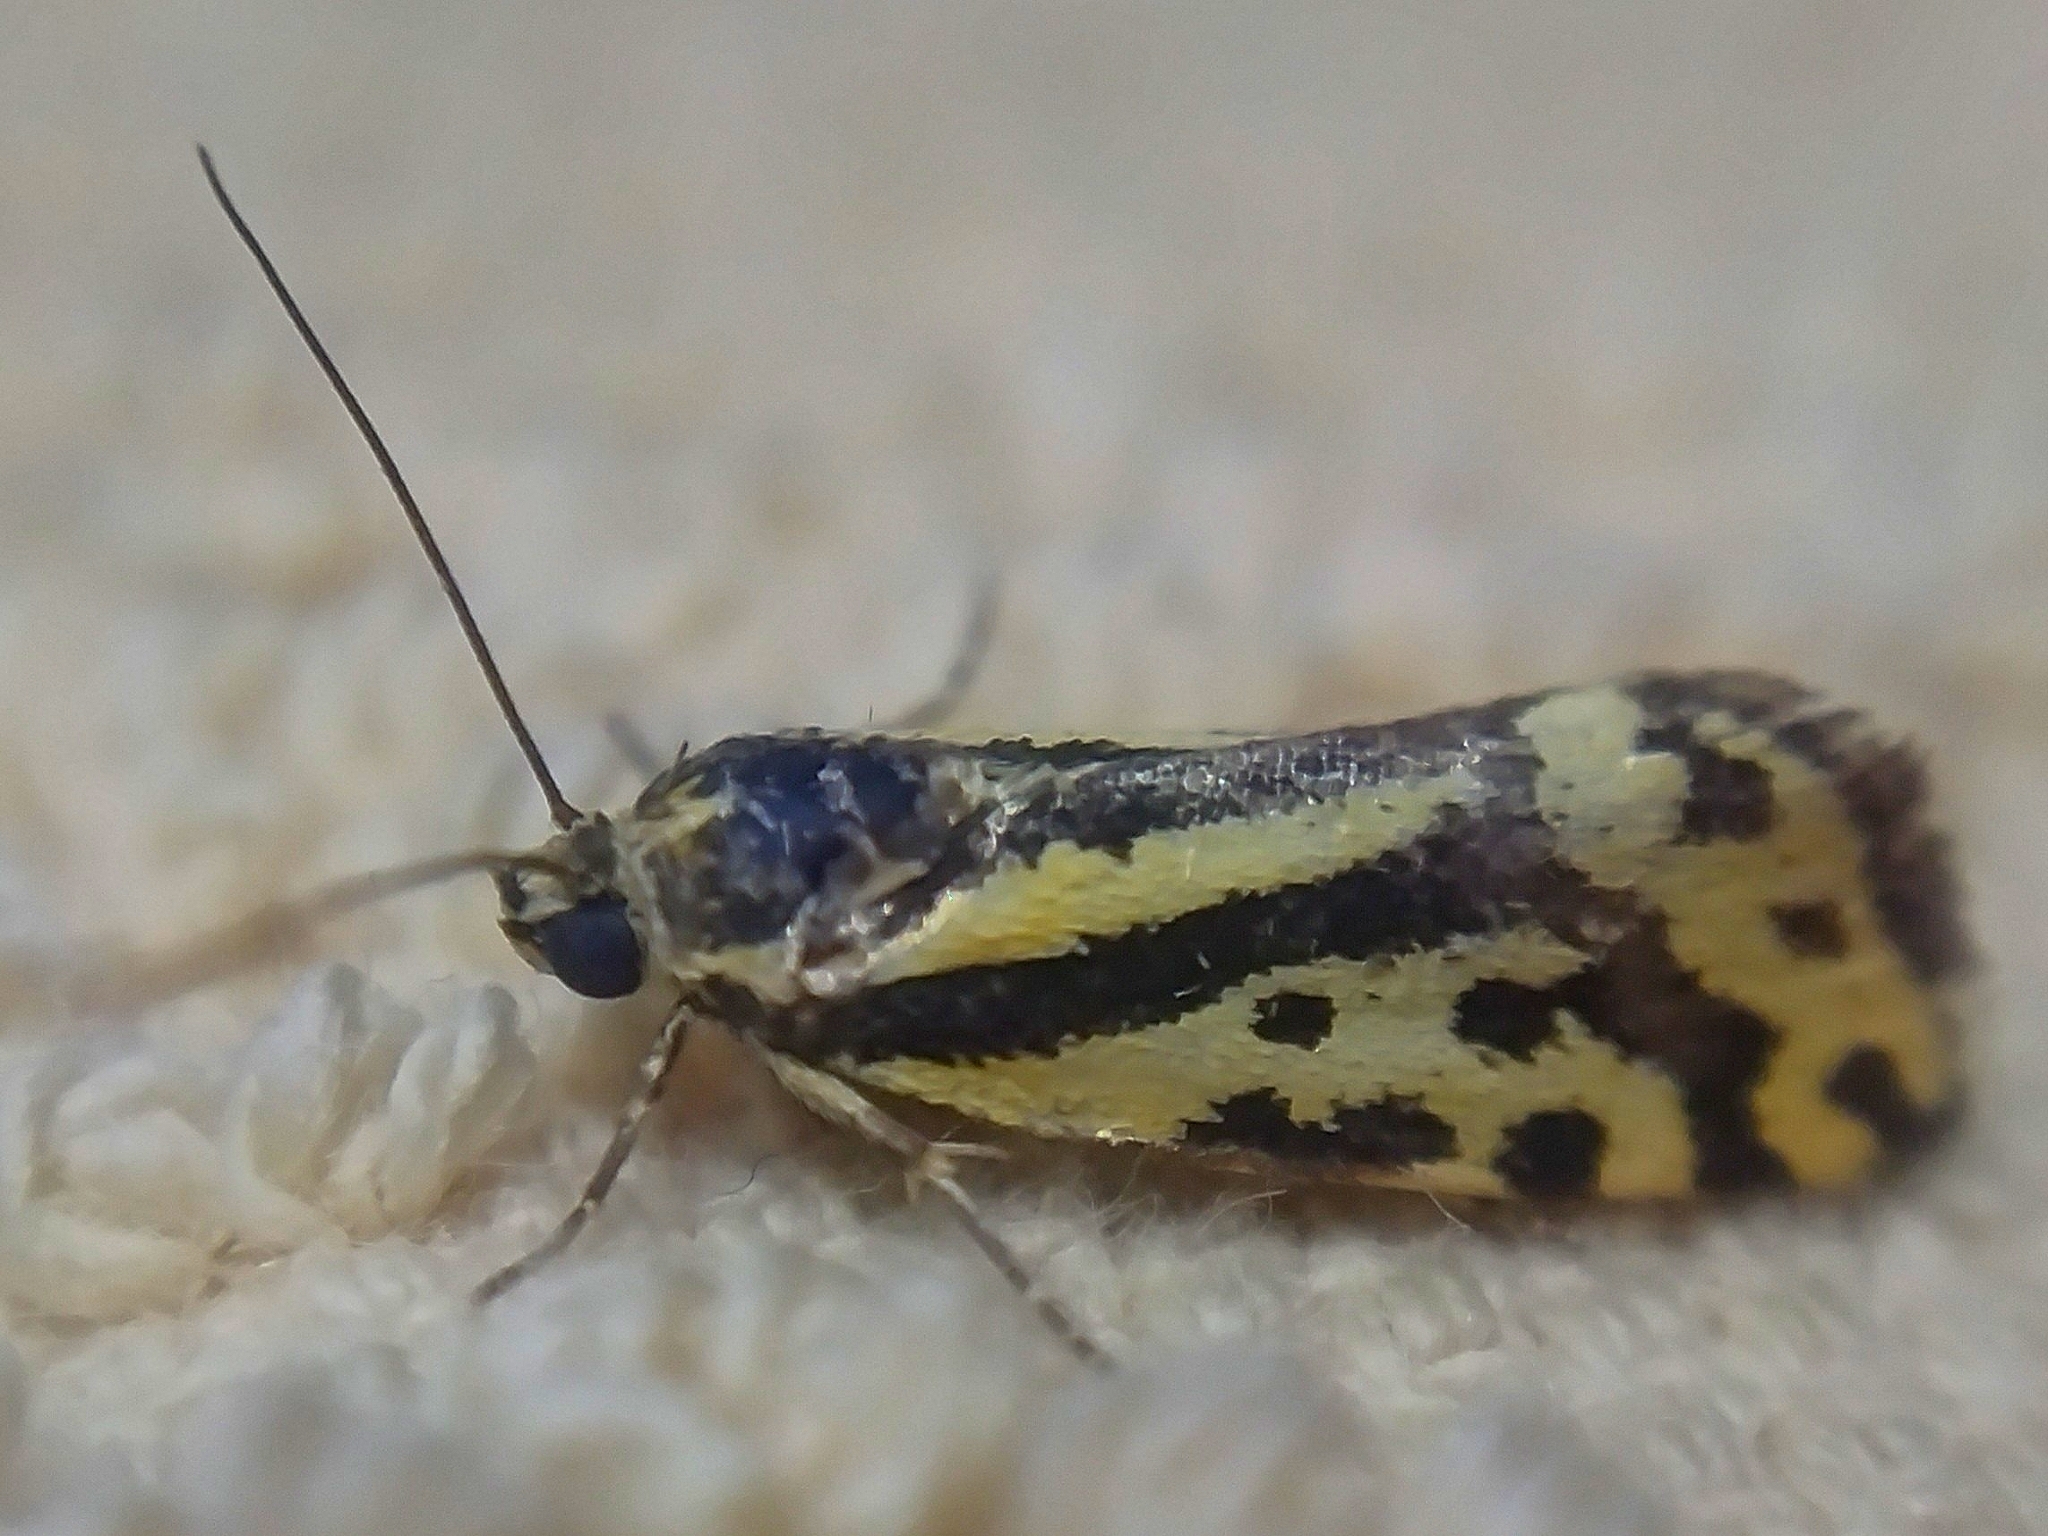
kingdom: Animalia
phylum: Arthropoda
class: Insecta
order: Lepidoptera
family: Noctuidae
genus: Acontia
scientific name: Acontia trabealis
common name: Spotted sulphur
